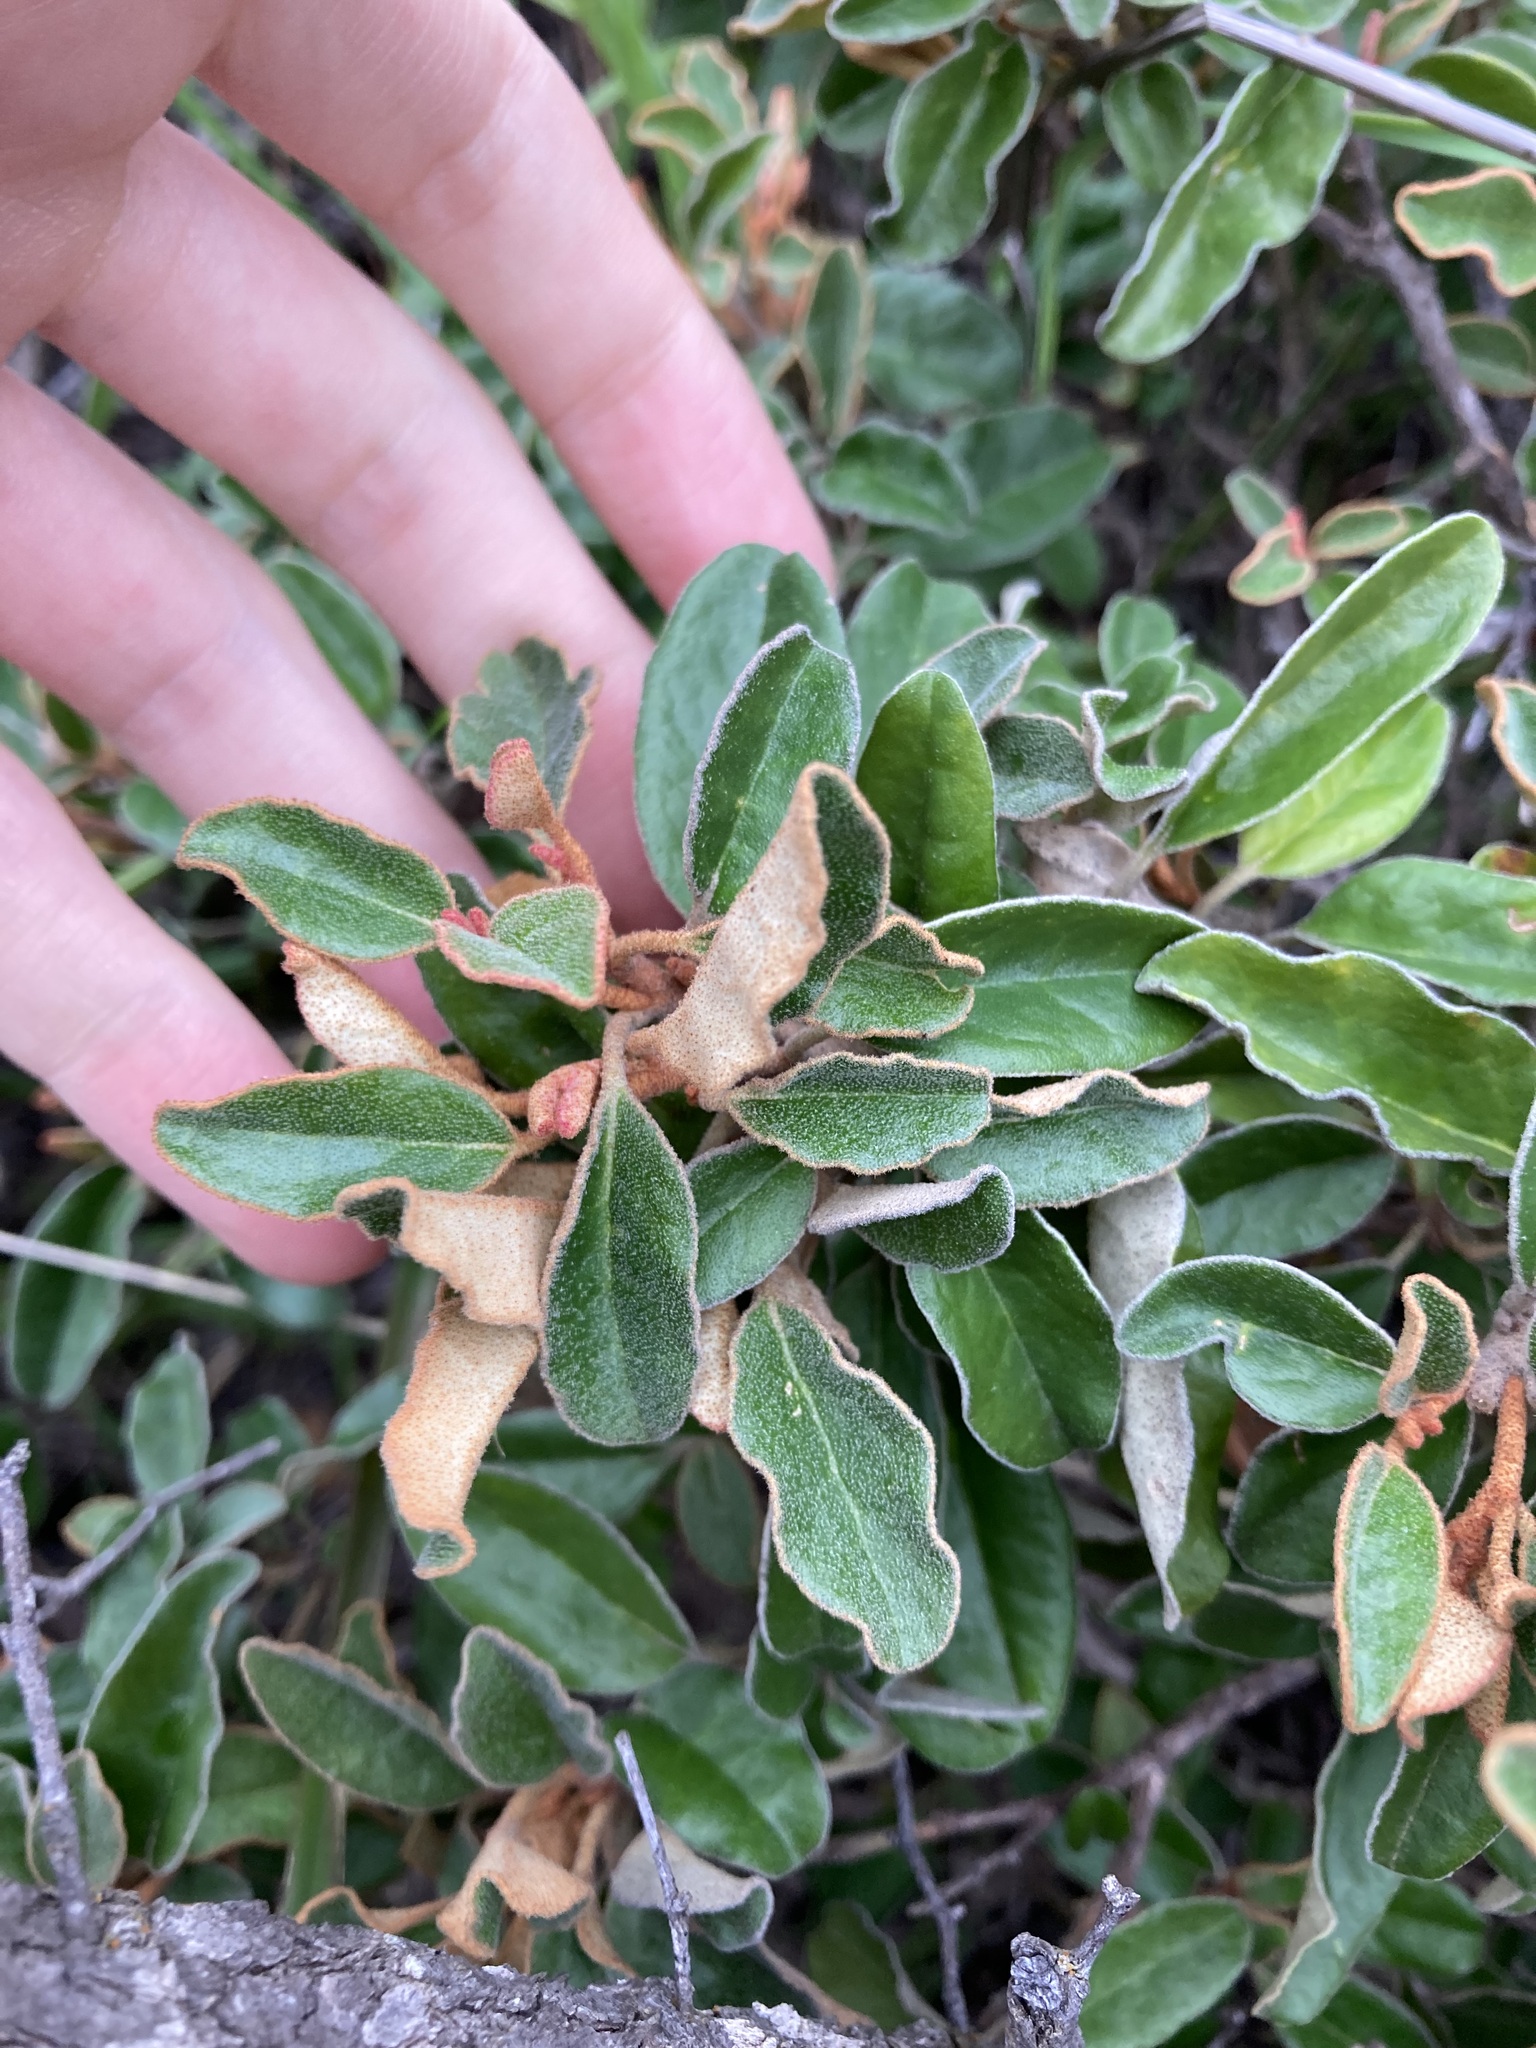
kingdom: Plantae
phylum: Tracheophyta
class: Magnoliopsida
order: Sapindales
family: Rutaceae
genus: Diplolaena
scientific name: Diplolaena eneabbensis
